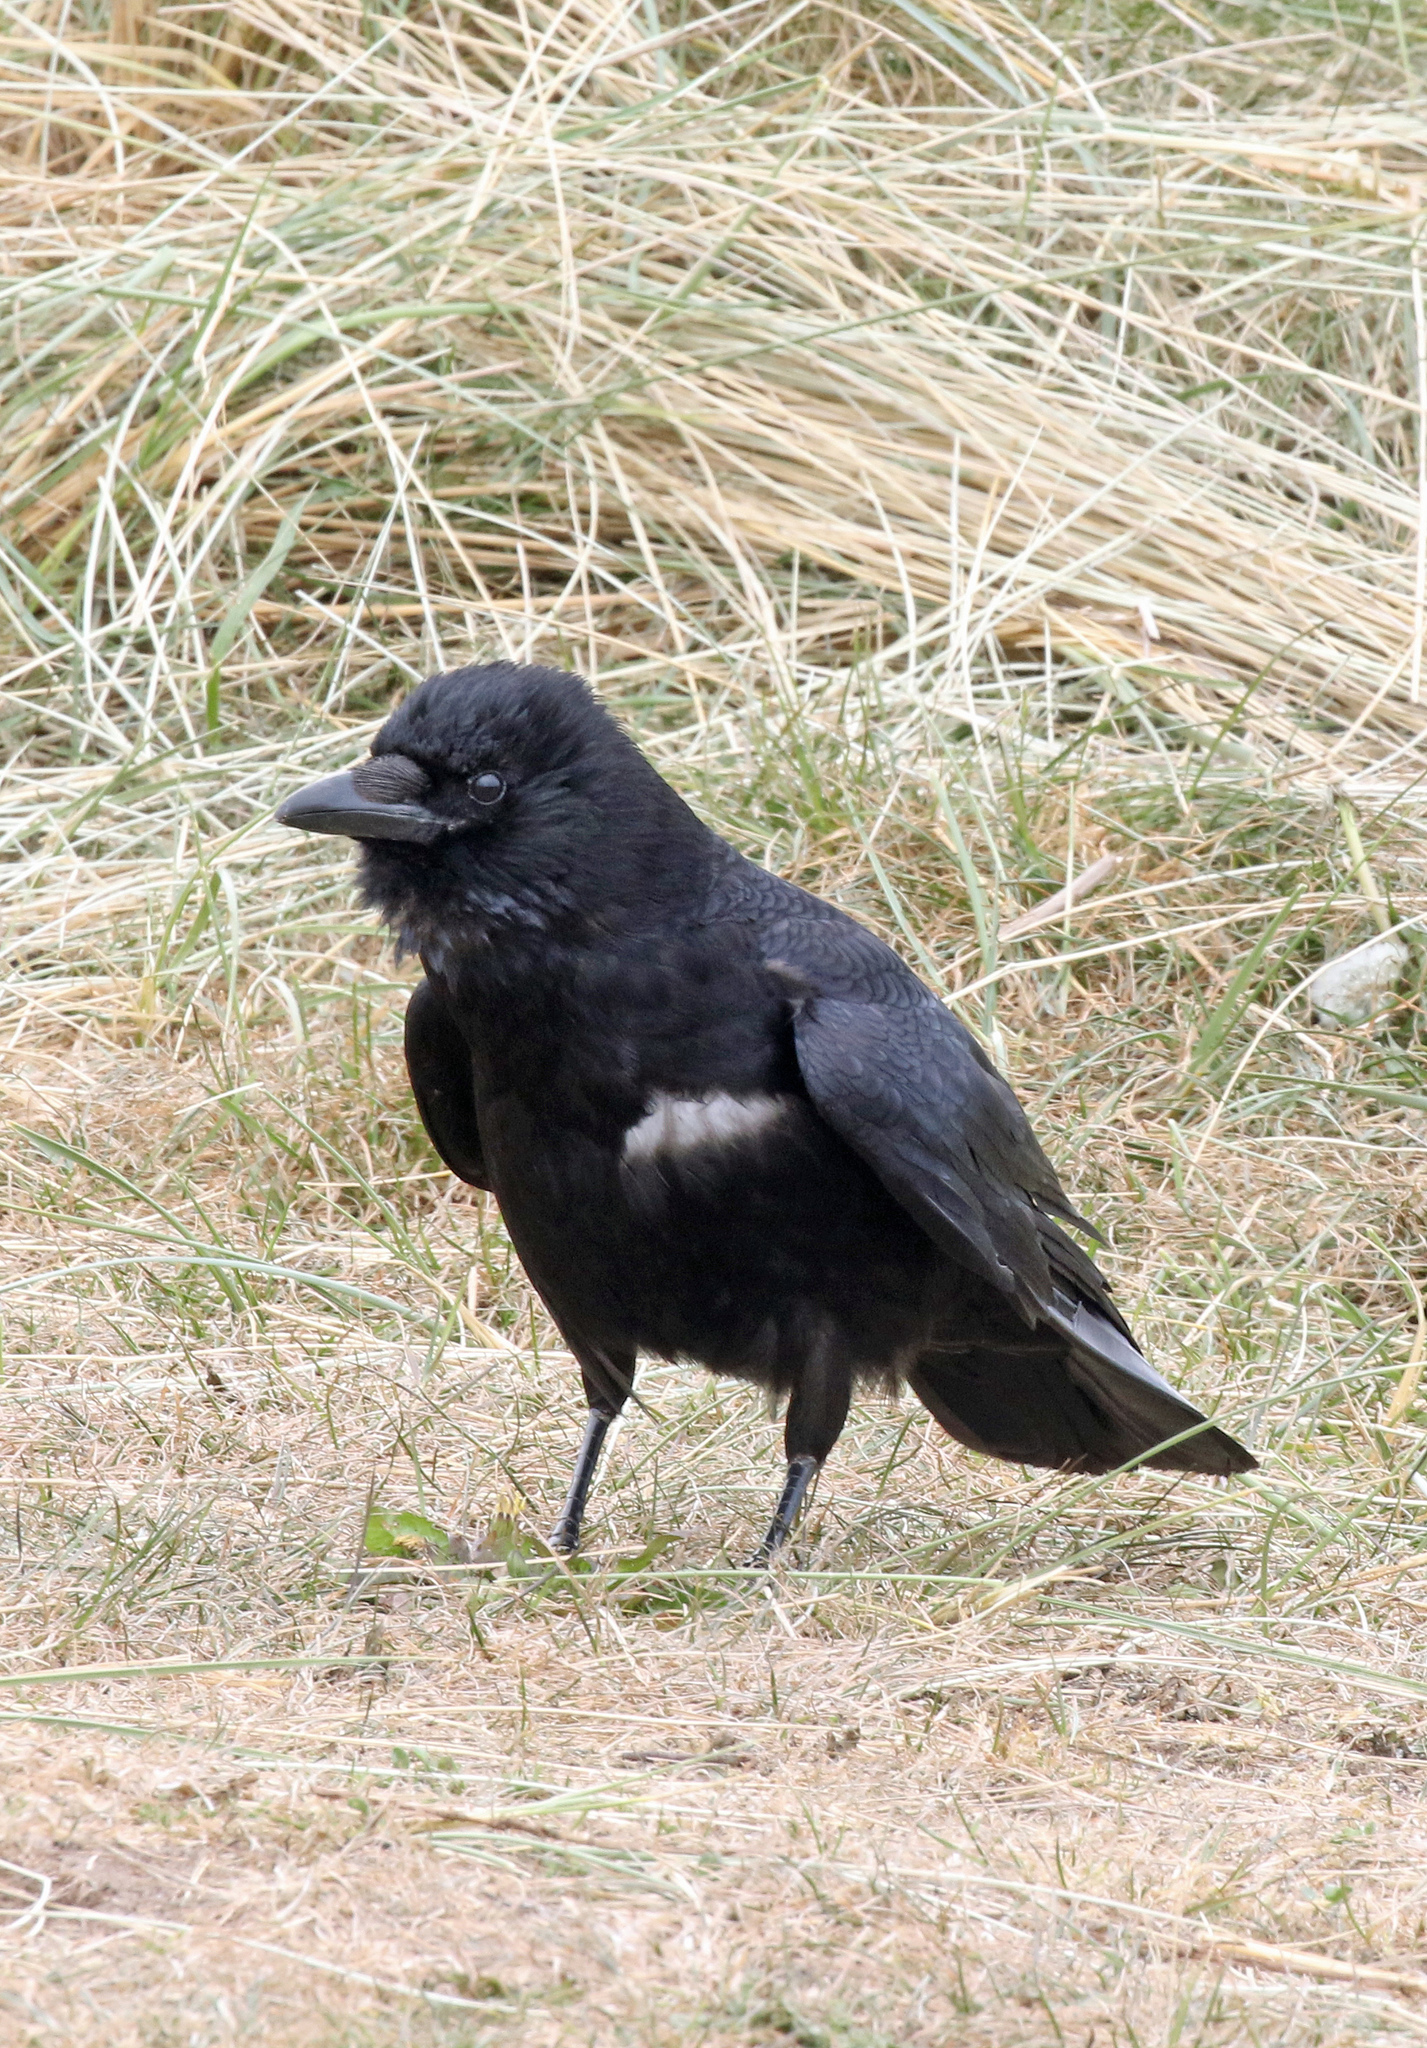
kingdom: Animalia
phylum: Chordata
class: Aves
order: Passeriformes
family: Corvidae
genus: Corvus
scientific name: Corvus corone
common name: Carrion crow
